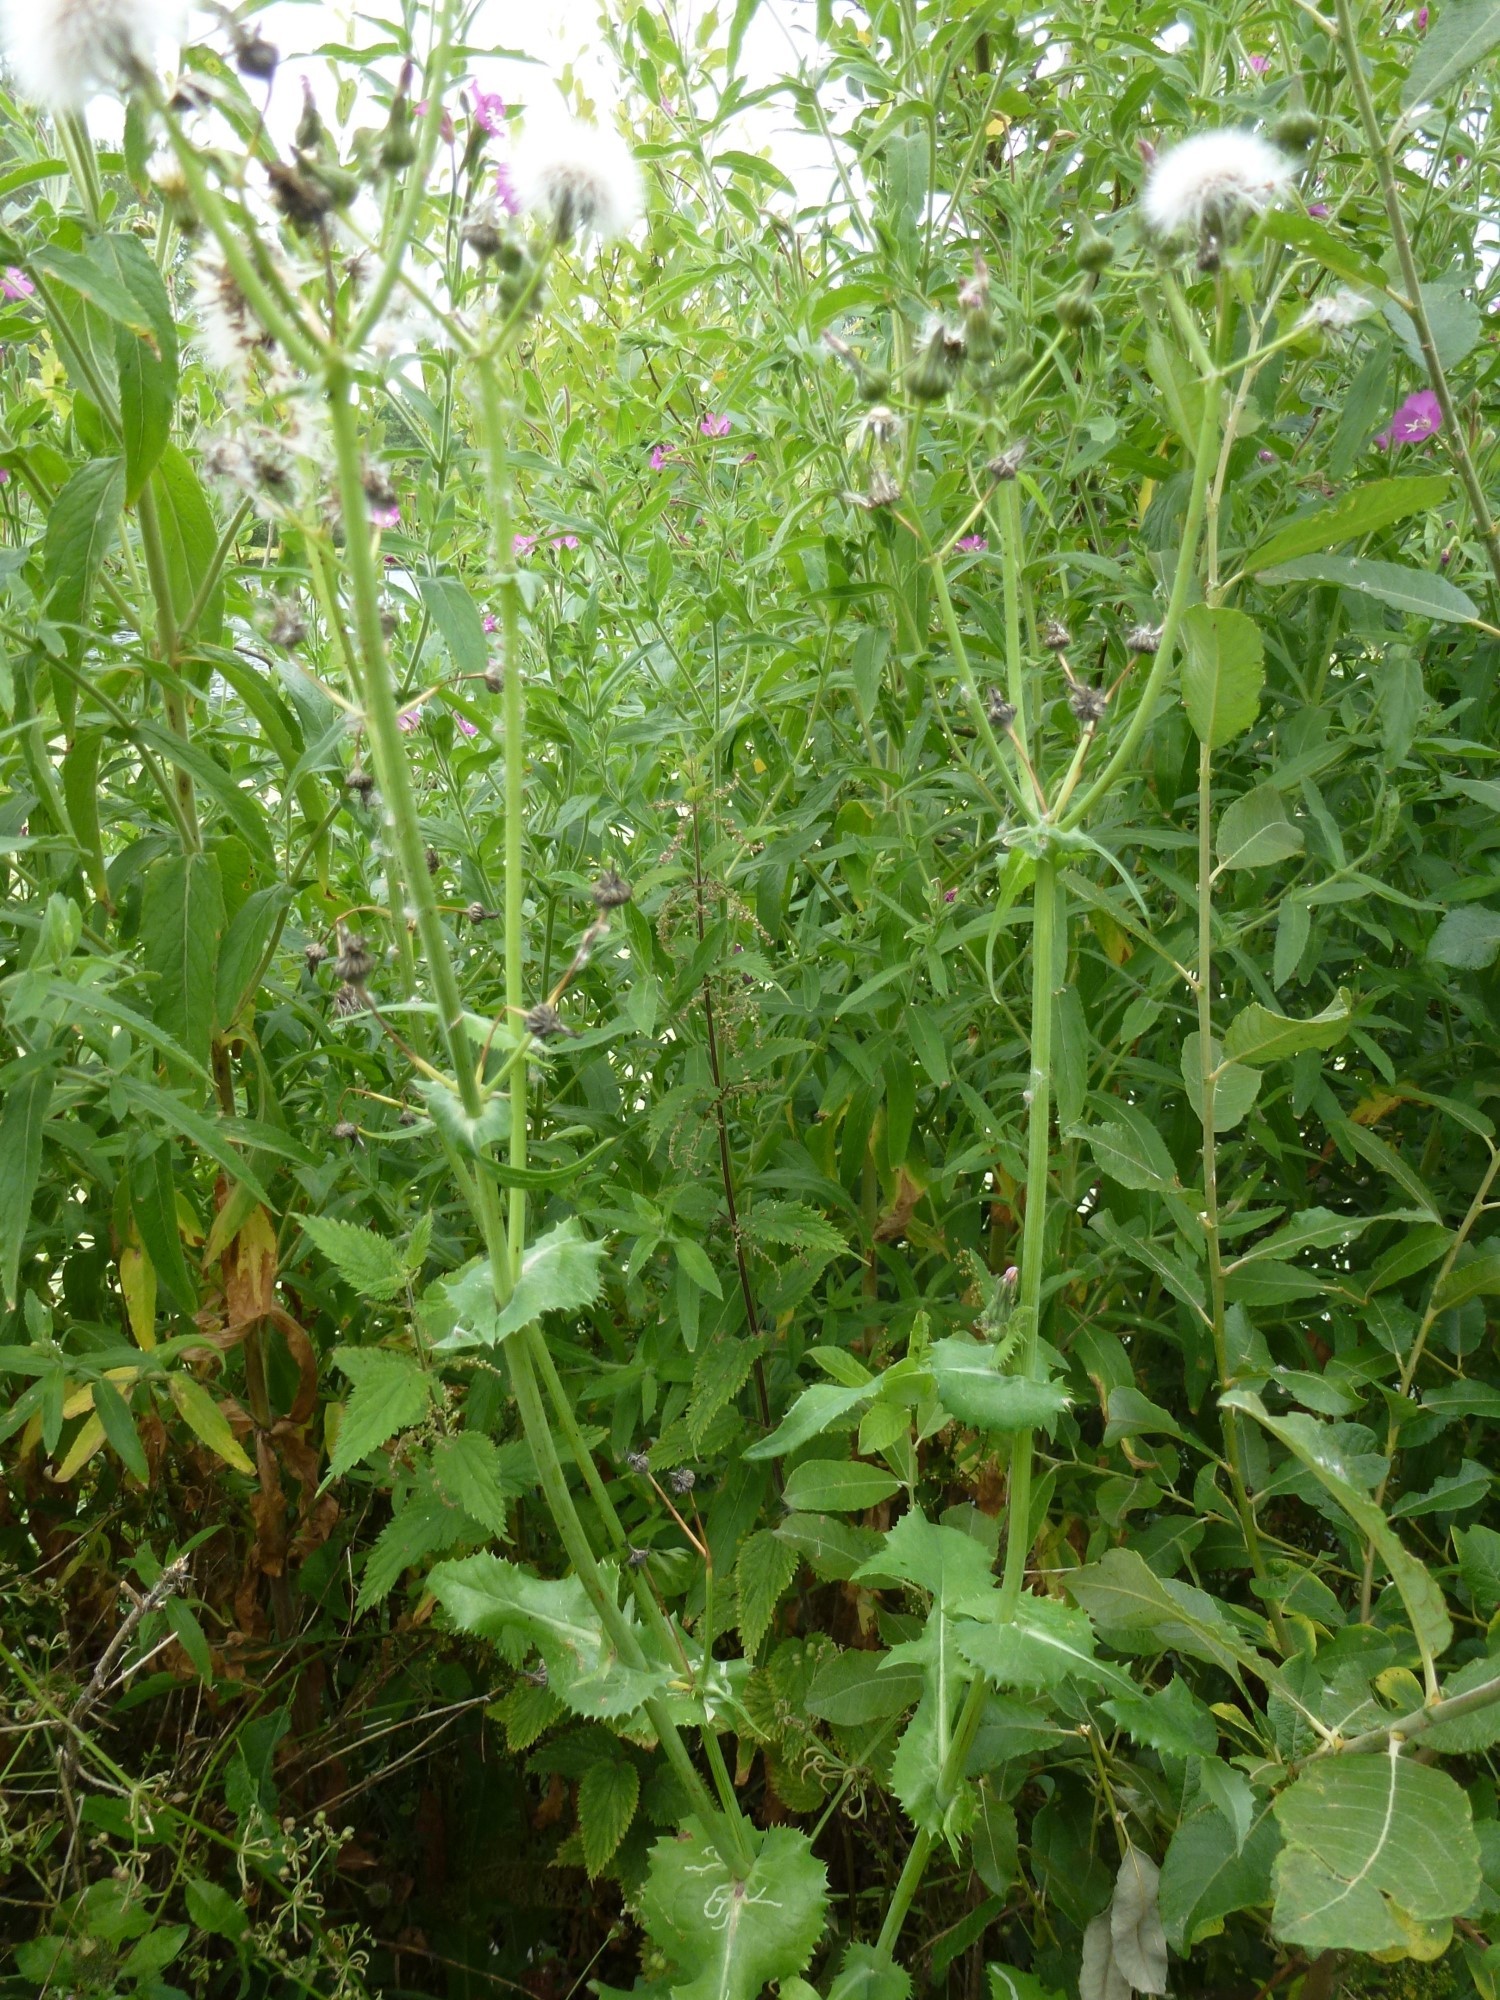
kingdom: Plantae
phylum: Tracheophyta
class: Magnoliopsida
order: Asterales
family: Asteraceae
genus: Sonchus
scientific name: Sonchus oleraceus
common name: Common sowthistle
